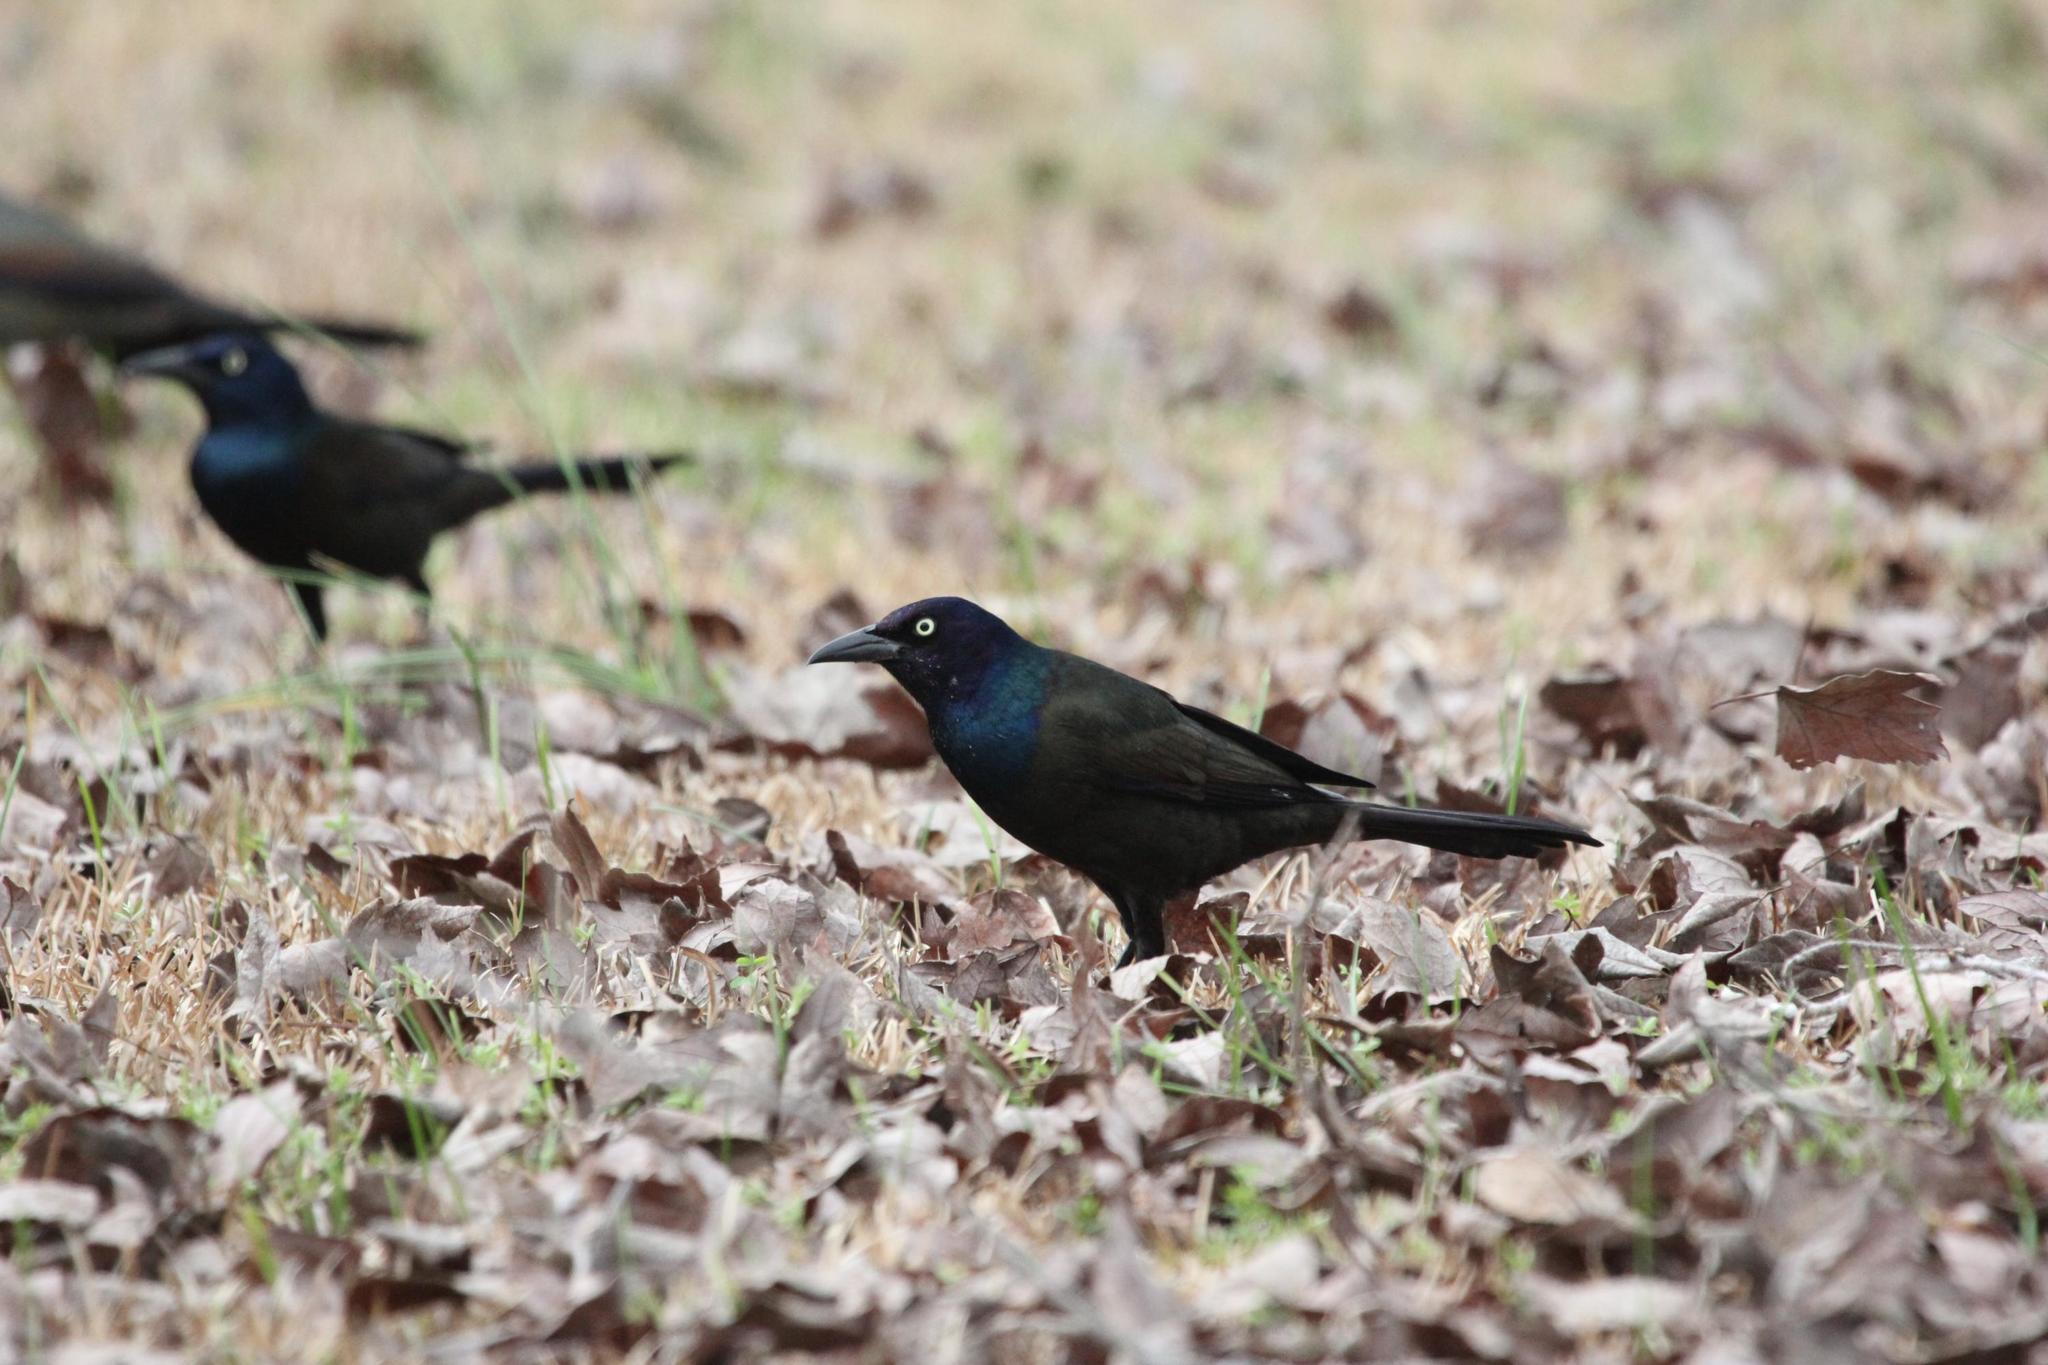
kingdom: Animalia
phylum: Chordata
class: Aves
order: Passeriformes
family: Icteridae
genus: Quiscalus
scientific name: Quiscalus quiscula
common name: Common grackle
